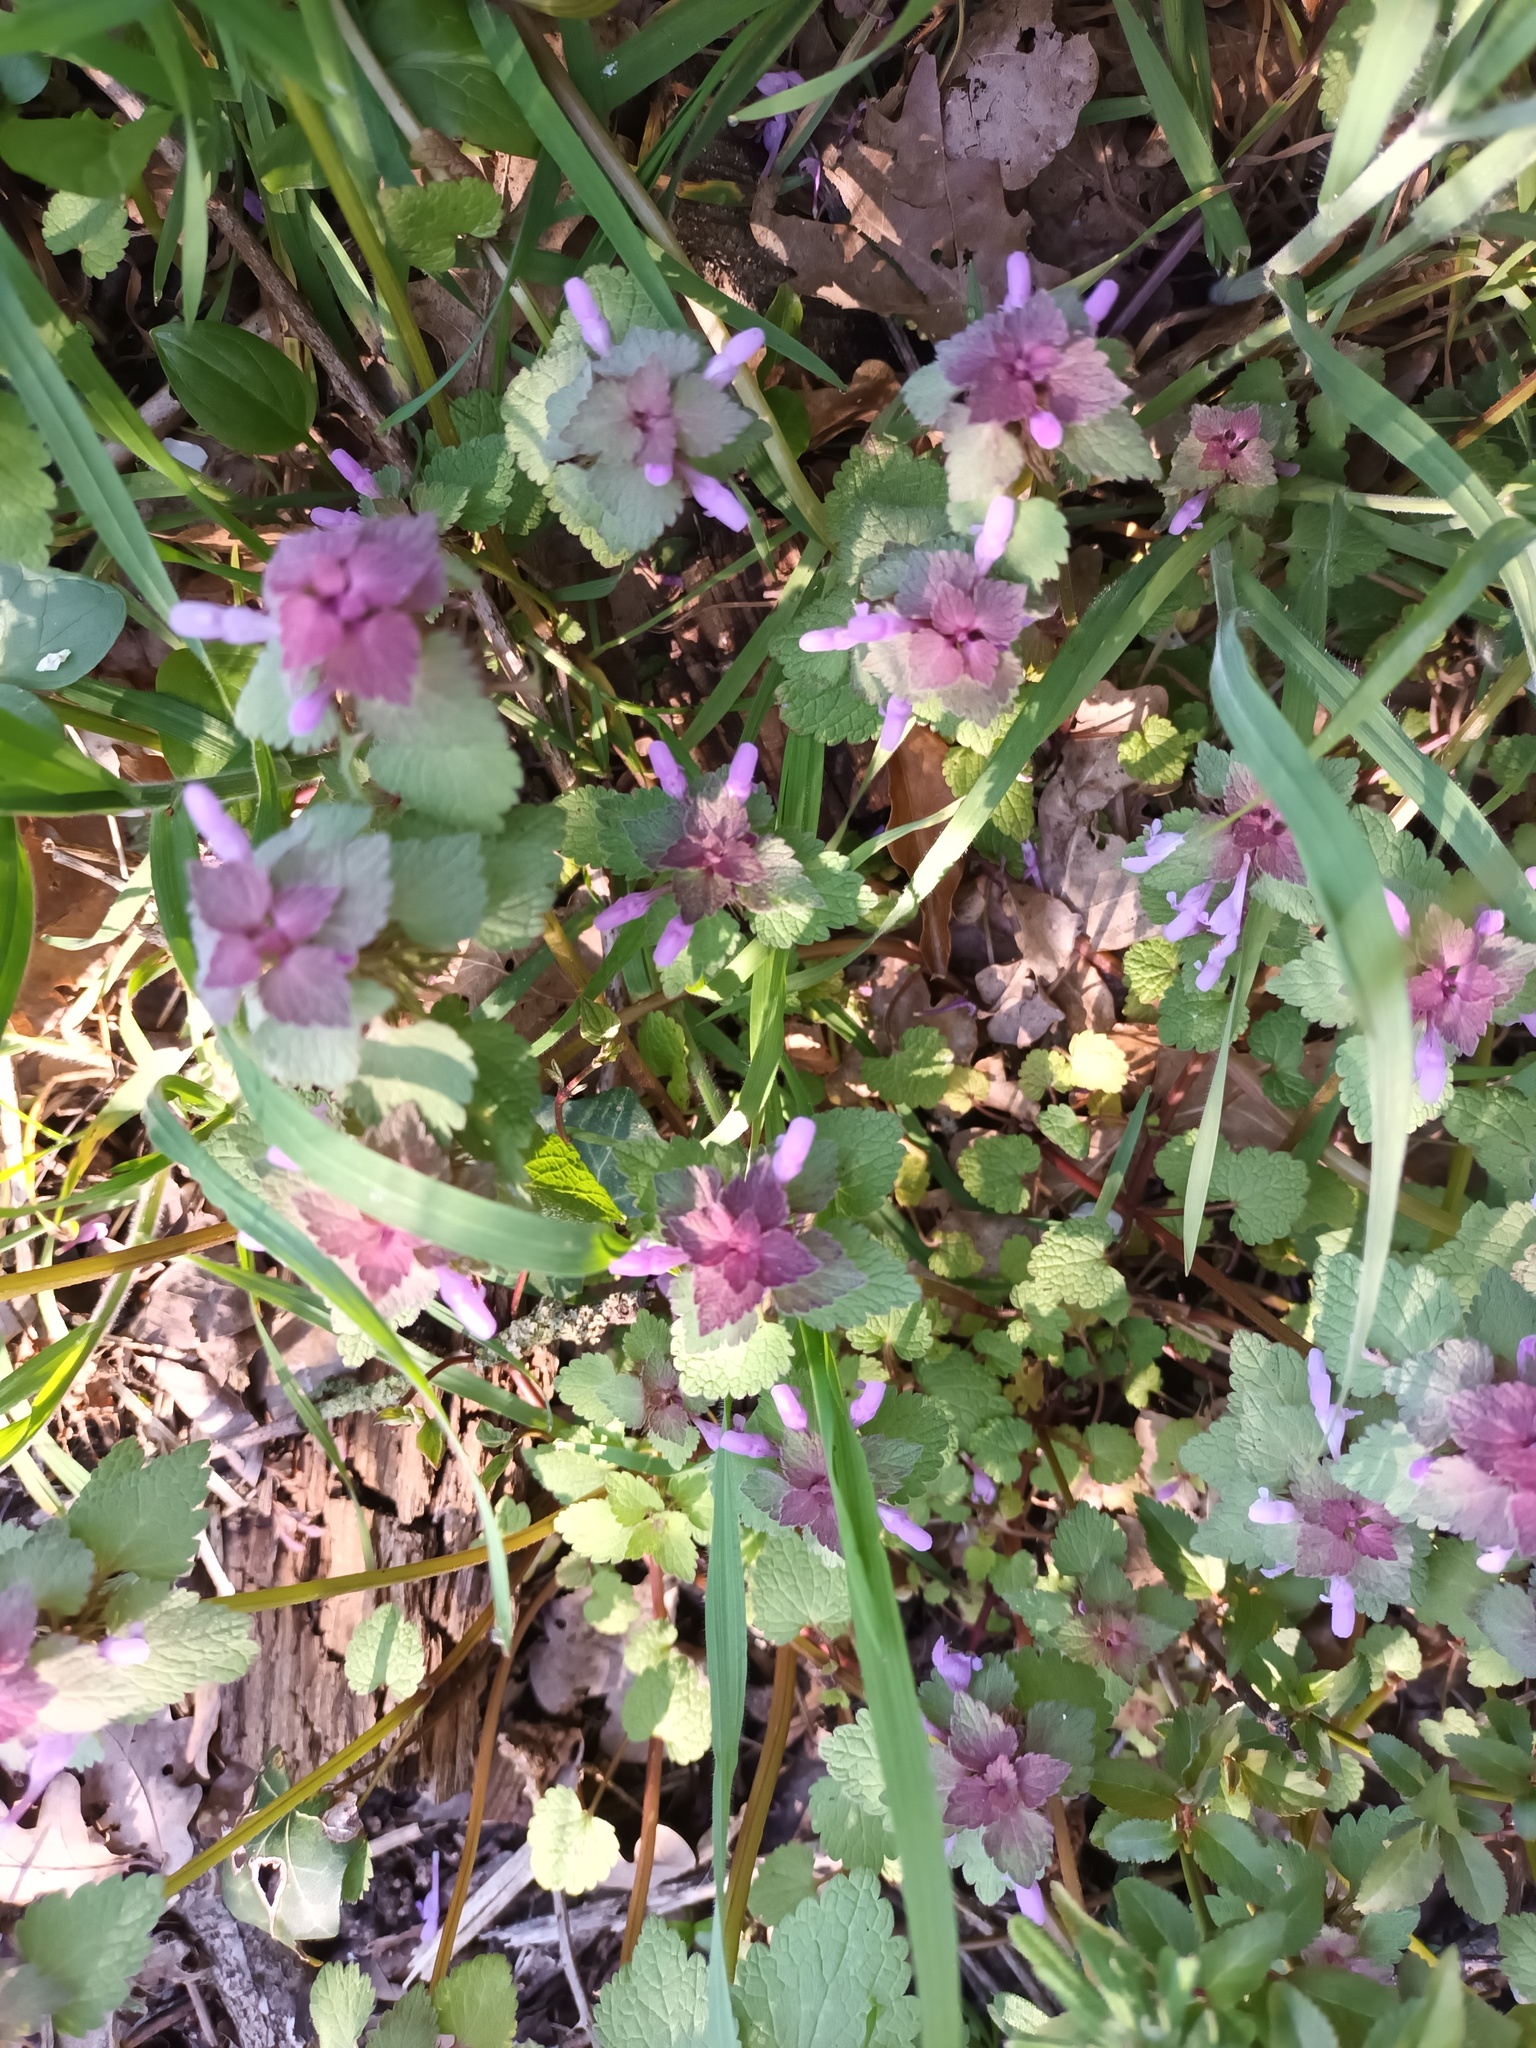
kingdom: Plantae
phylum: Tracheophyta
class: Magnoliopsida
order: Lamiales
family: Lamiaceae
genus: Lamium
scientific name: Lamium purpureum
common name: Red dead-nettle
